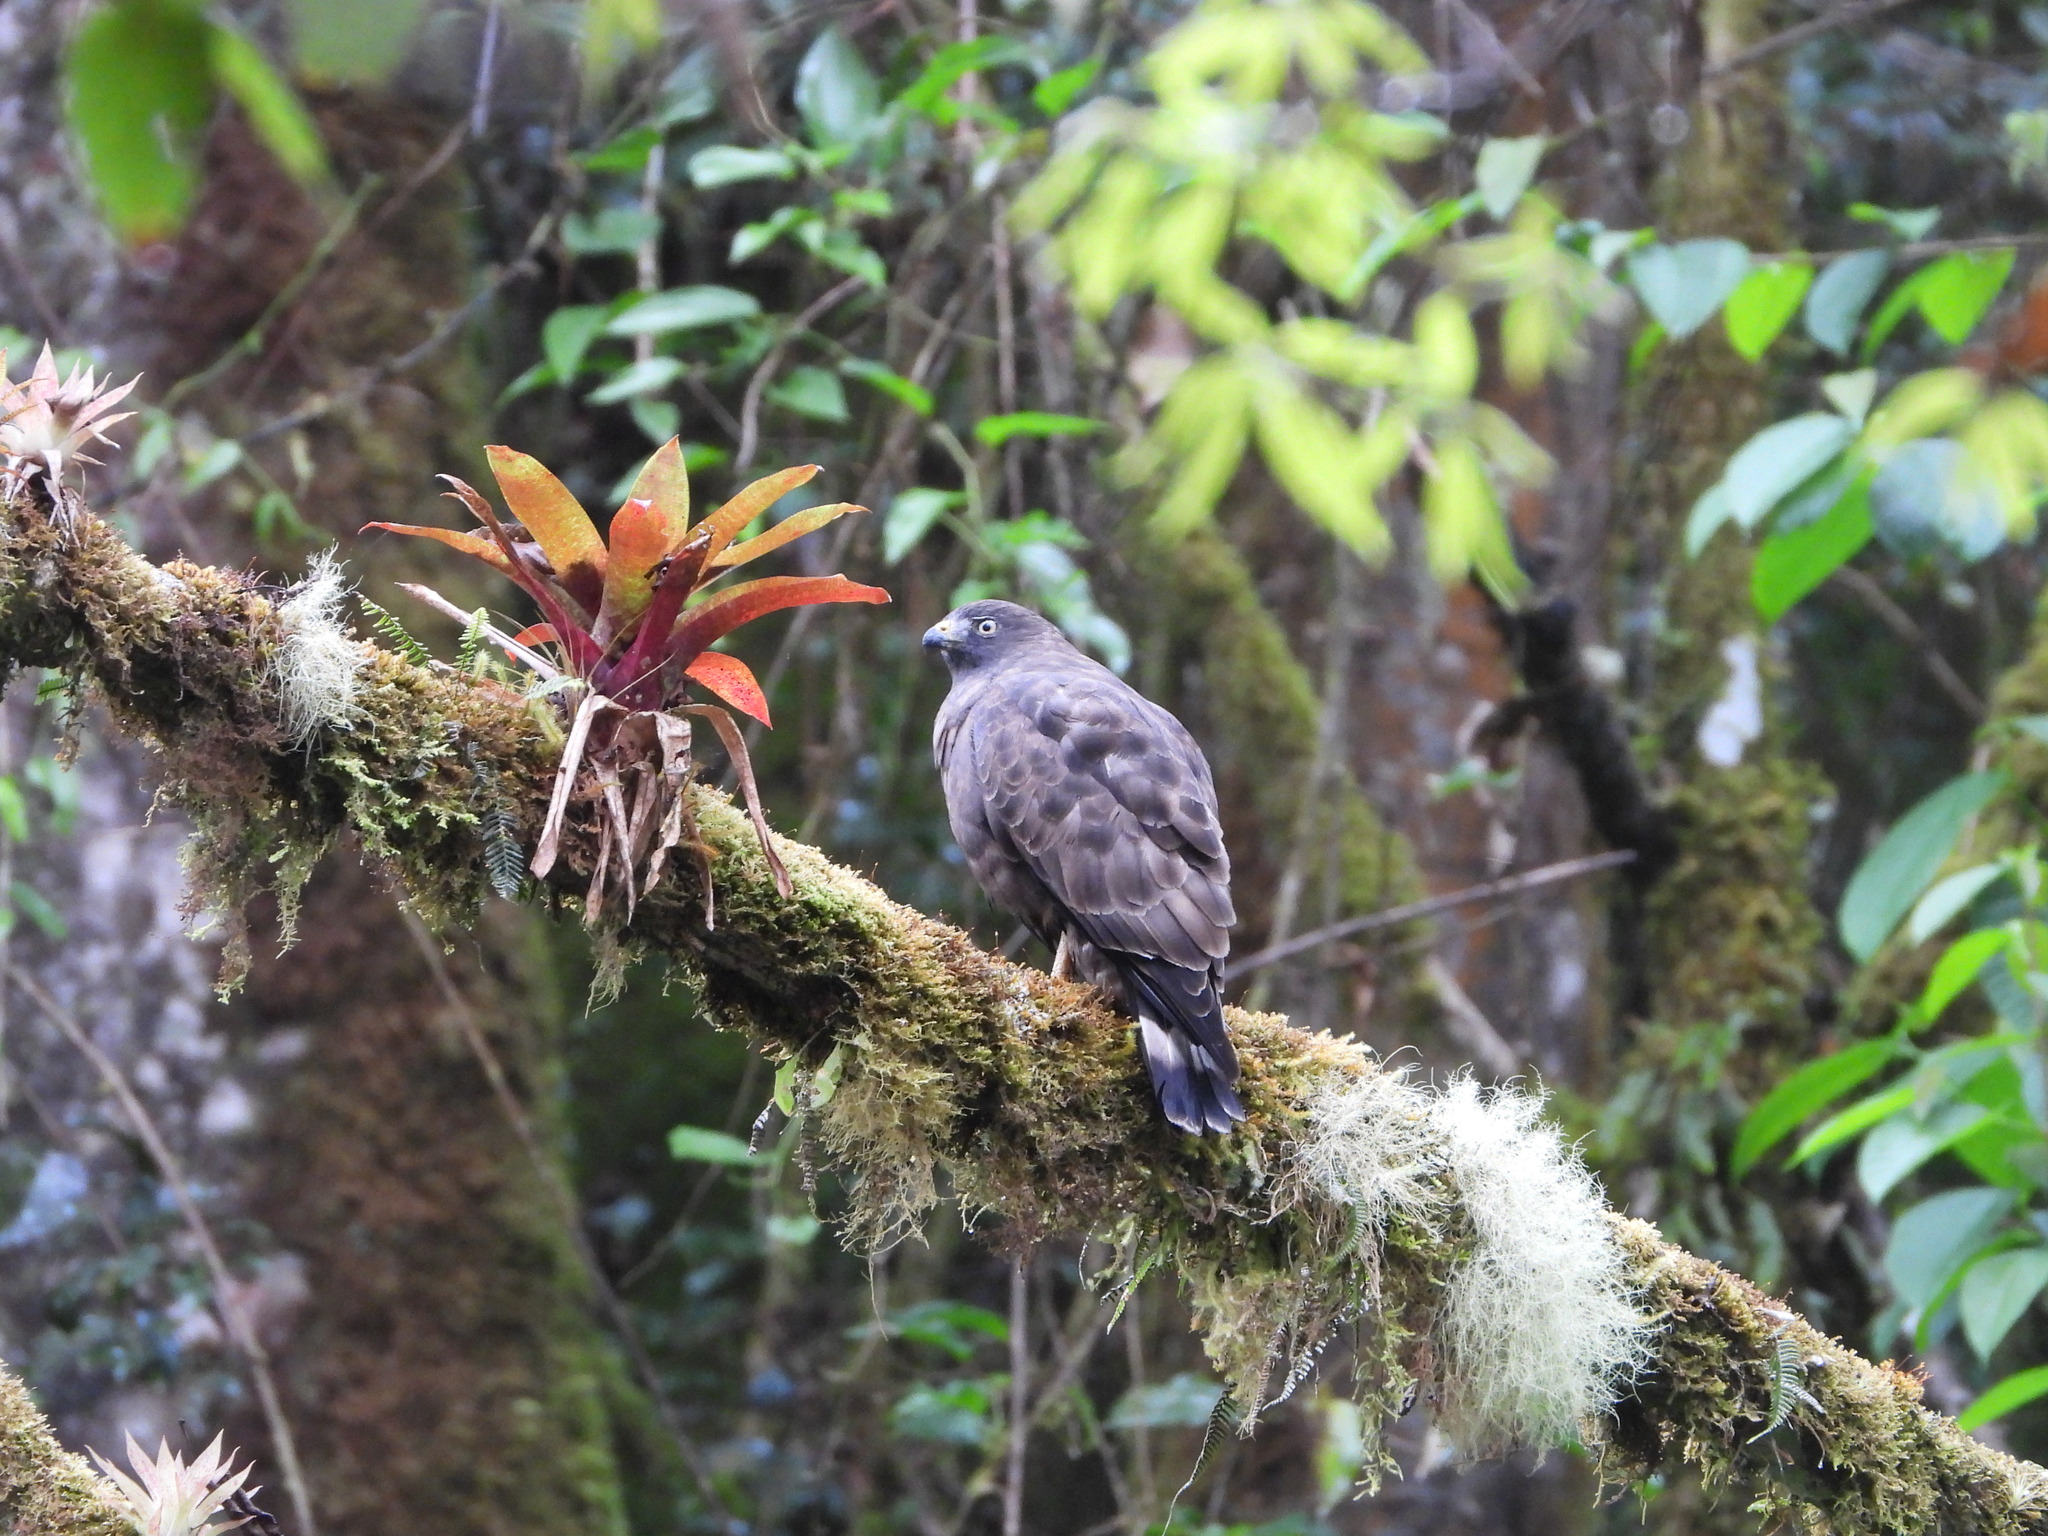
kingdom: Animalia
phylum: Chordata
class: Aves
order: Accipitriformes
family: Accipitridae
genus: Buteo
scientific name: Buteo platypterus
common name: Broad-winged hawk
